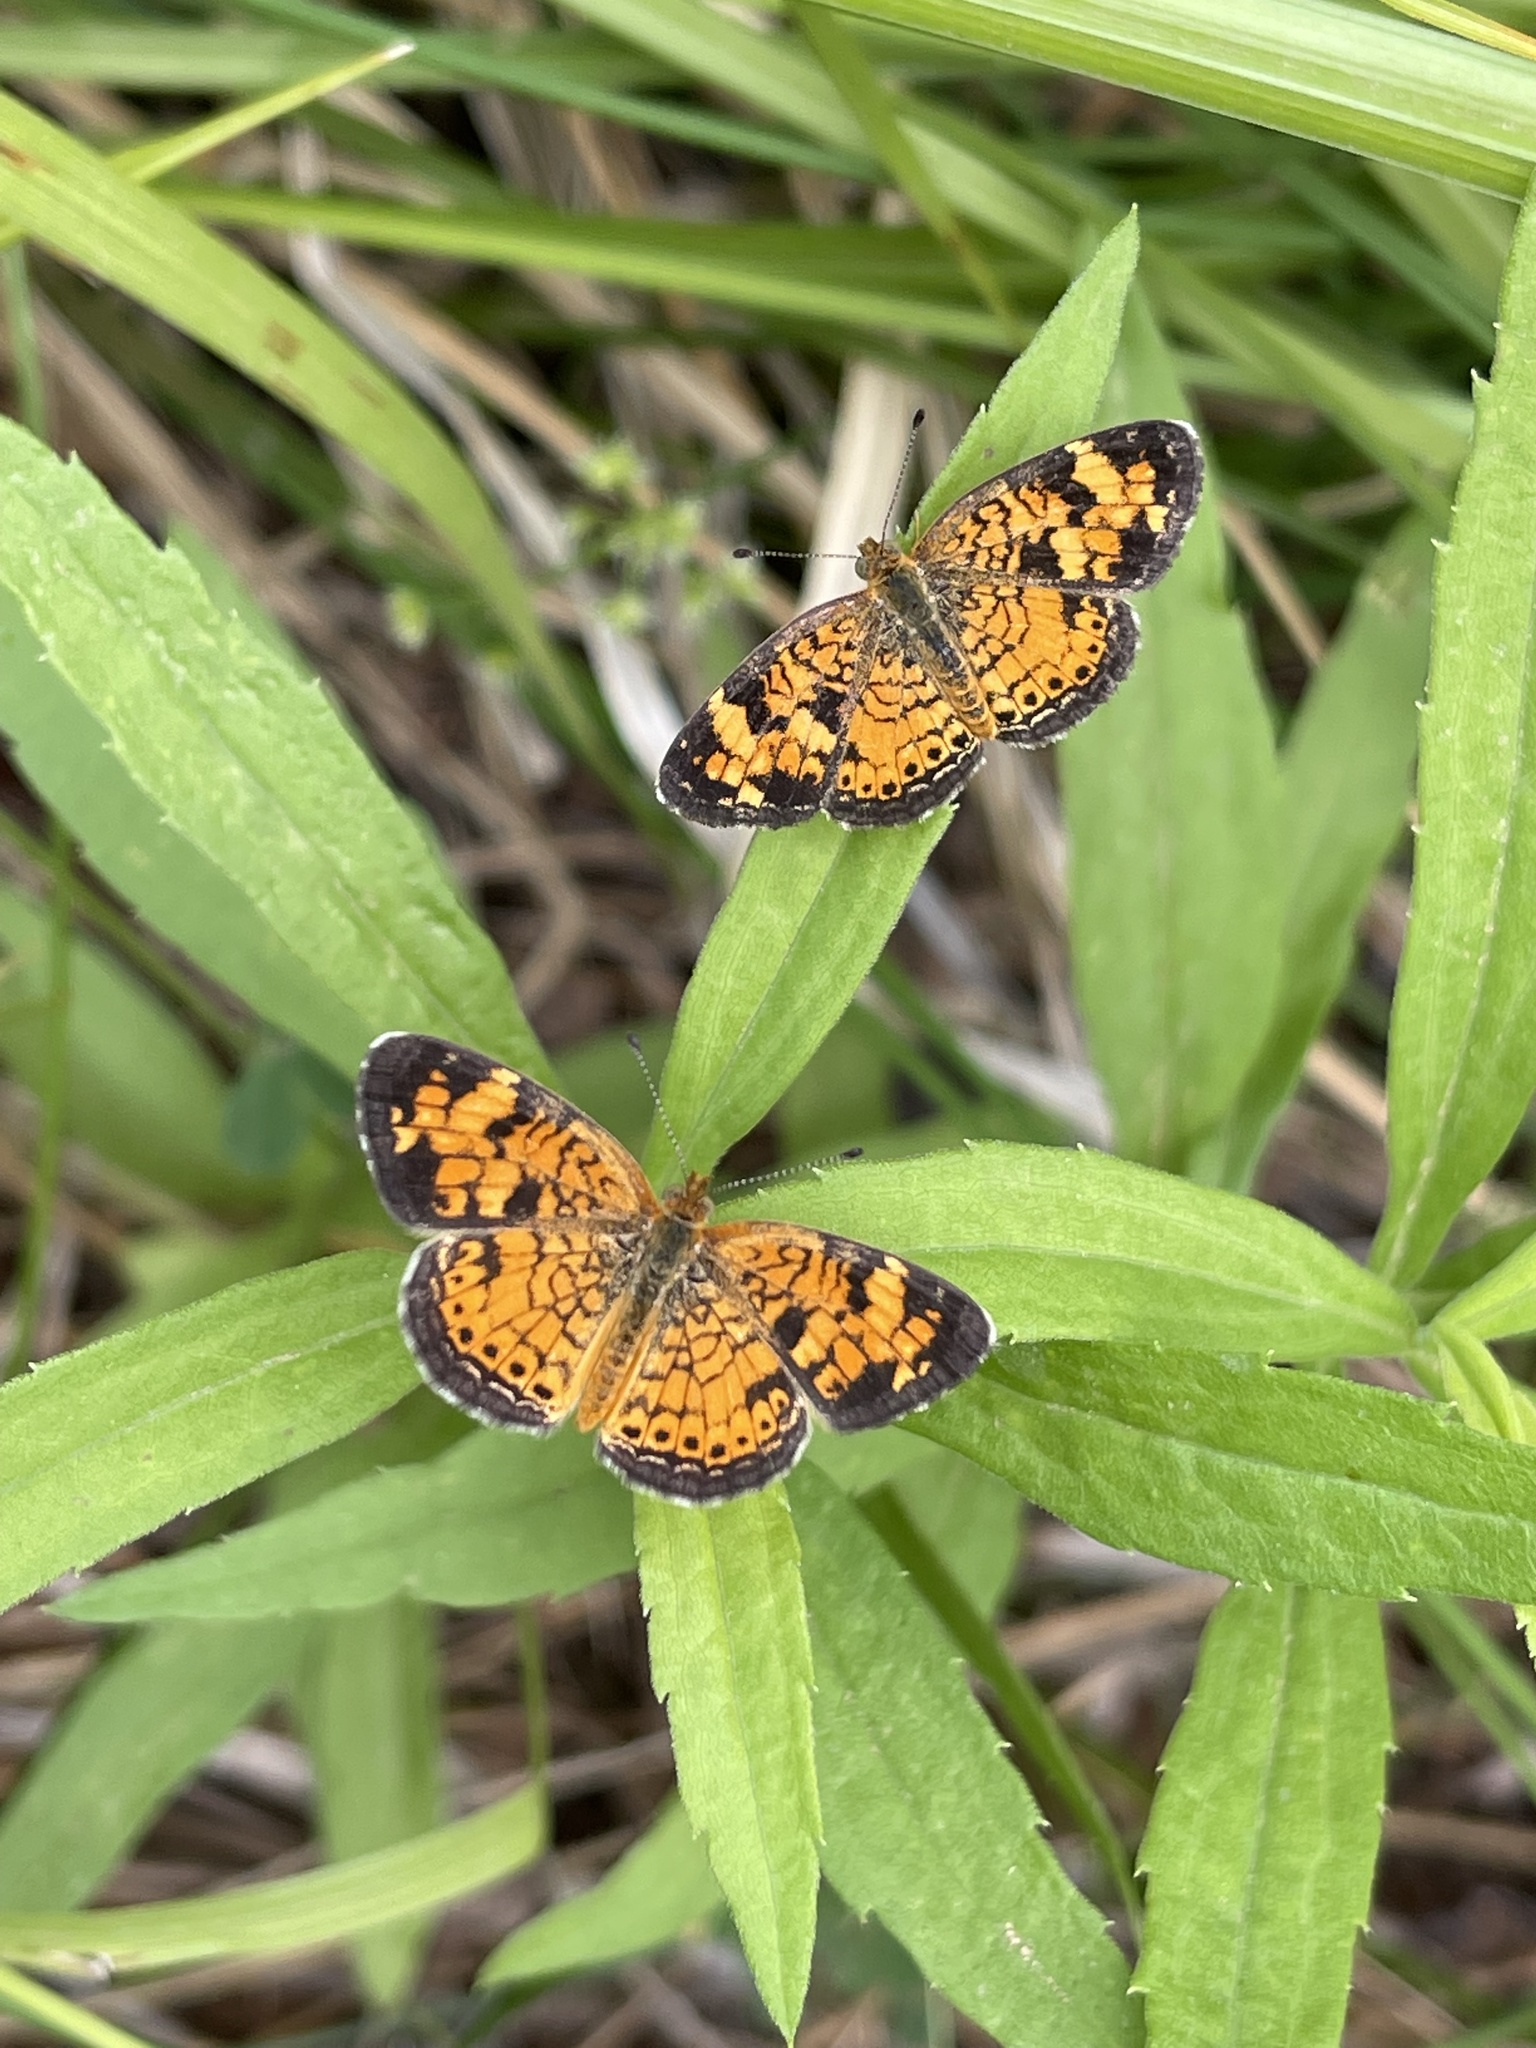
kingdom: Animalia
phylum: Arthropoda
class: Insecta
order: Lepidoptera
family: Nymphalidae
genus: Phyciodes
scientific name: Phyciodes tharos
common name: Pearl crescent
